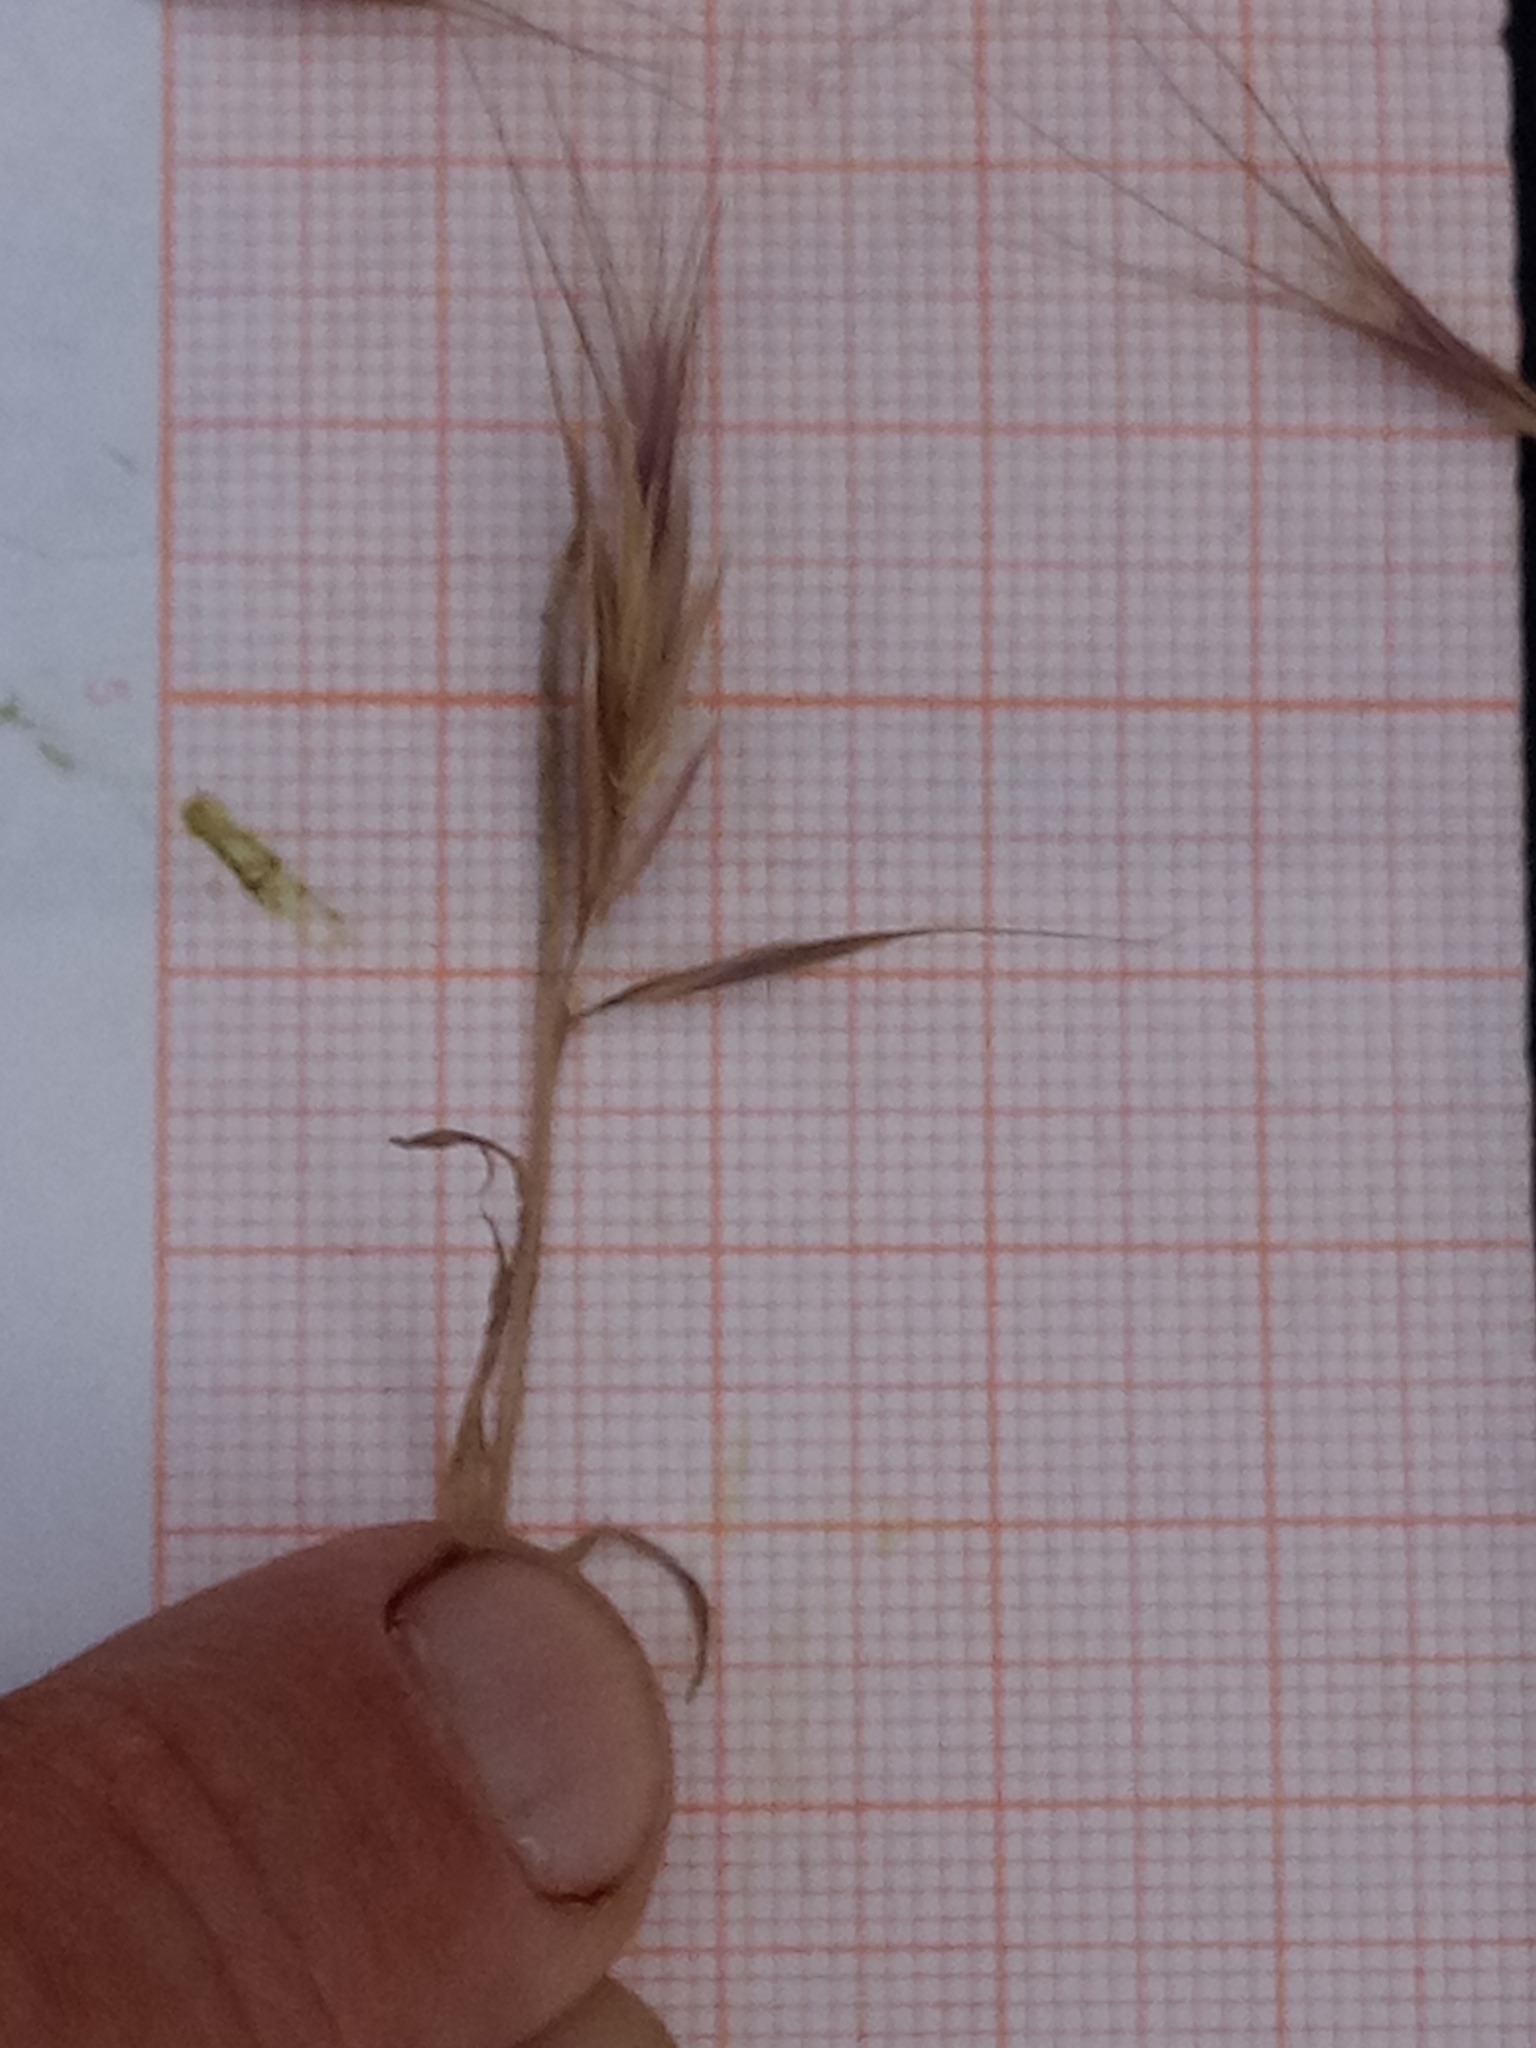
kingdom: Plantae
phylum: Tracheophyta
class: Liliopsida
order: Poales
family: Poaceae
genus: Bromus
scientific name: Bromus rubens
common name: Red brome
